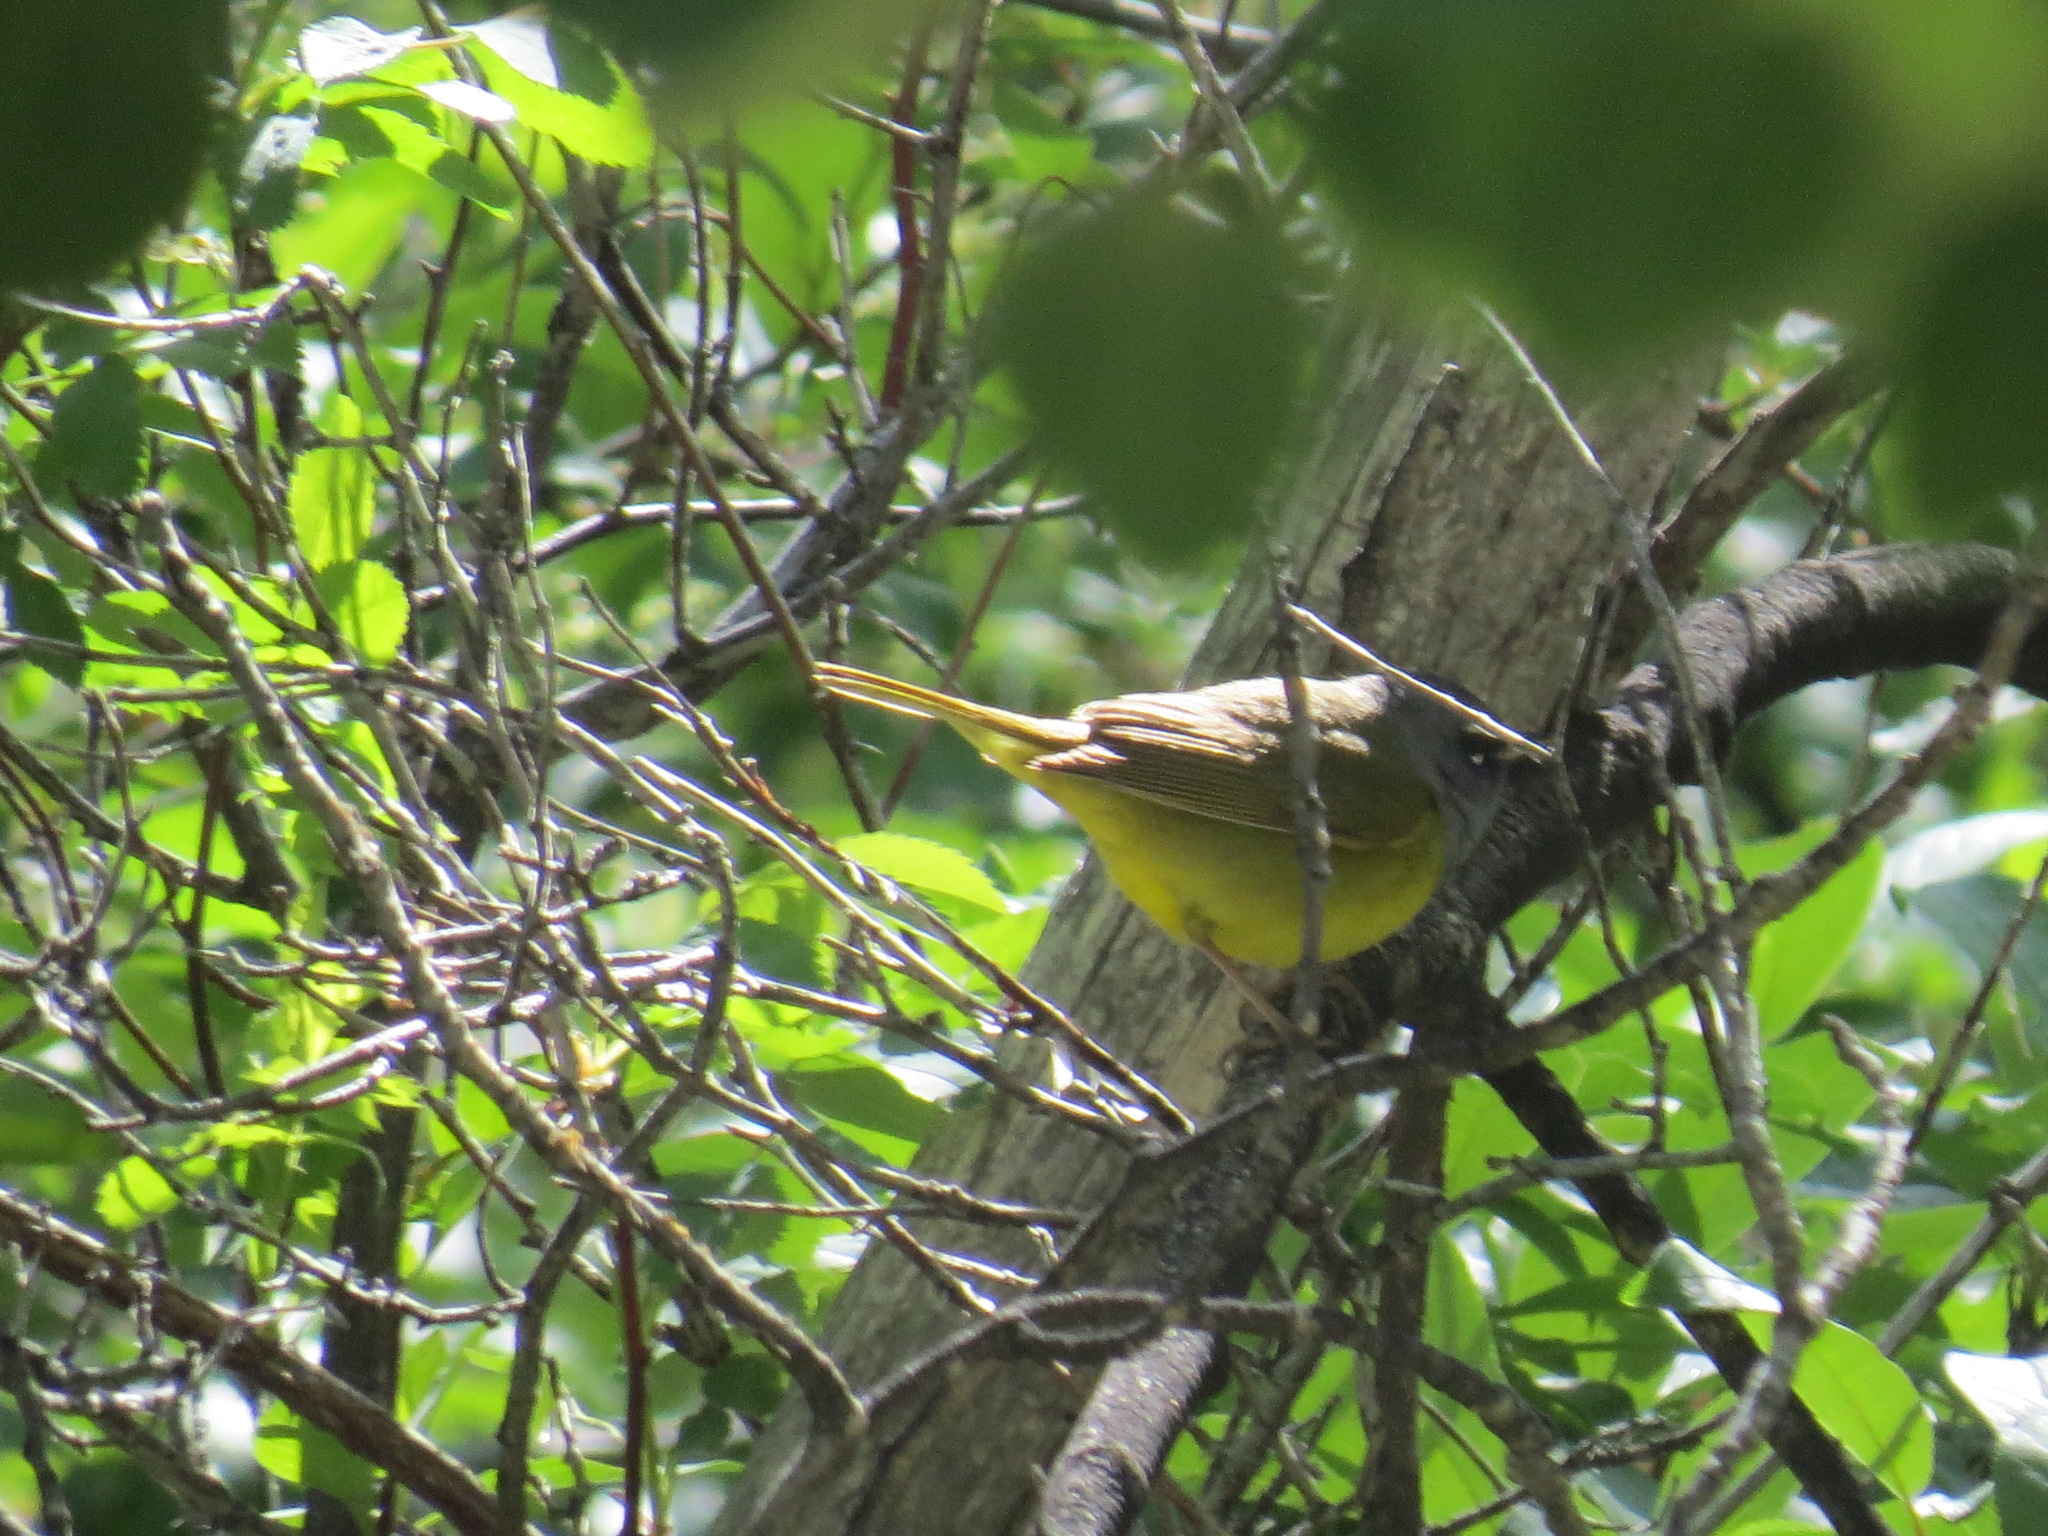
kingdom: Animalia
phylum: Chordata
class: Aves
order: Passeriformes
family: Parulidae
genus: Geothlypis
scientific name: Geothlypis tolmiei
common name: Macgillivray's warbler
